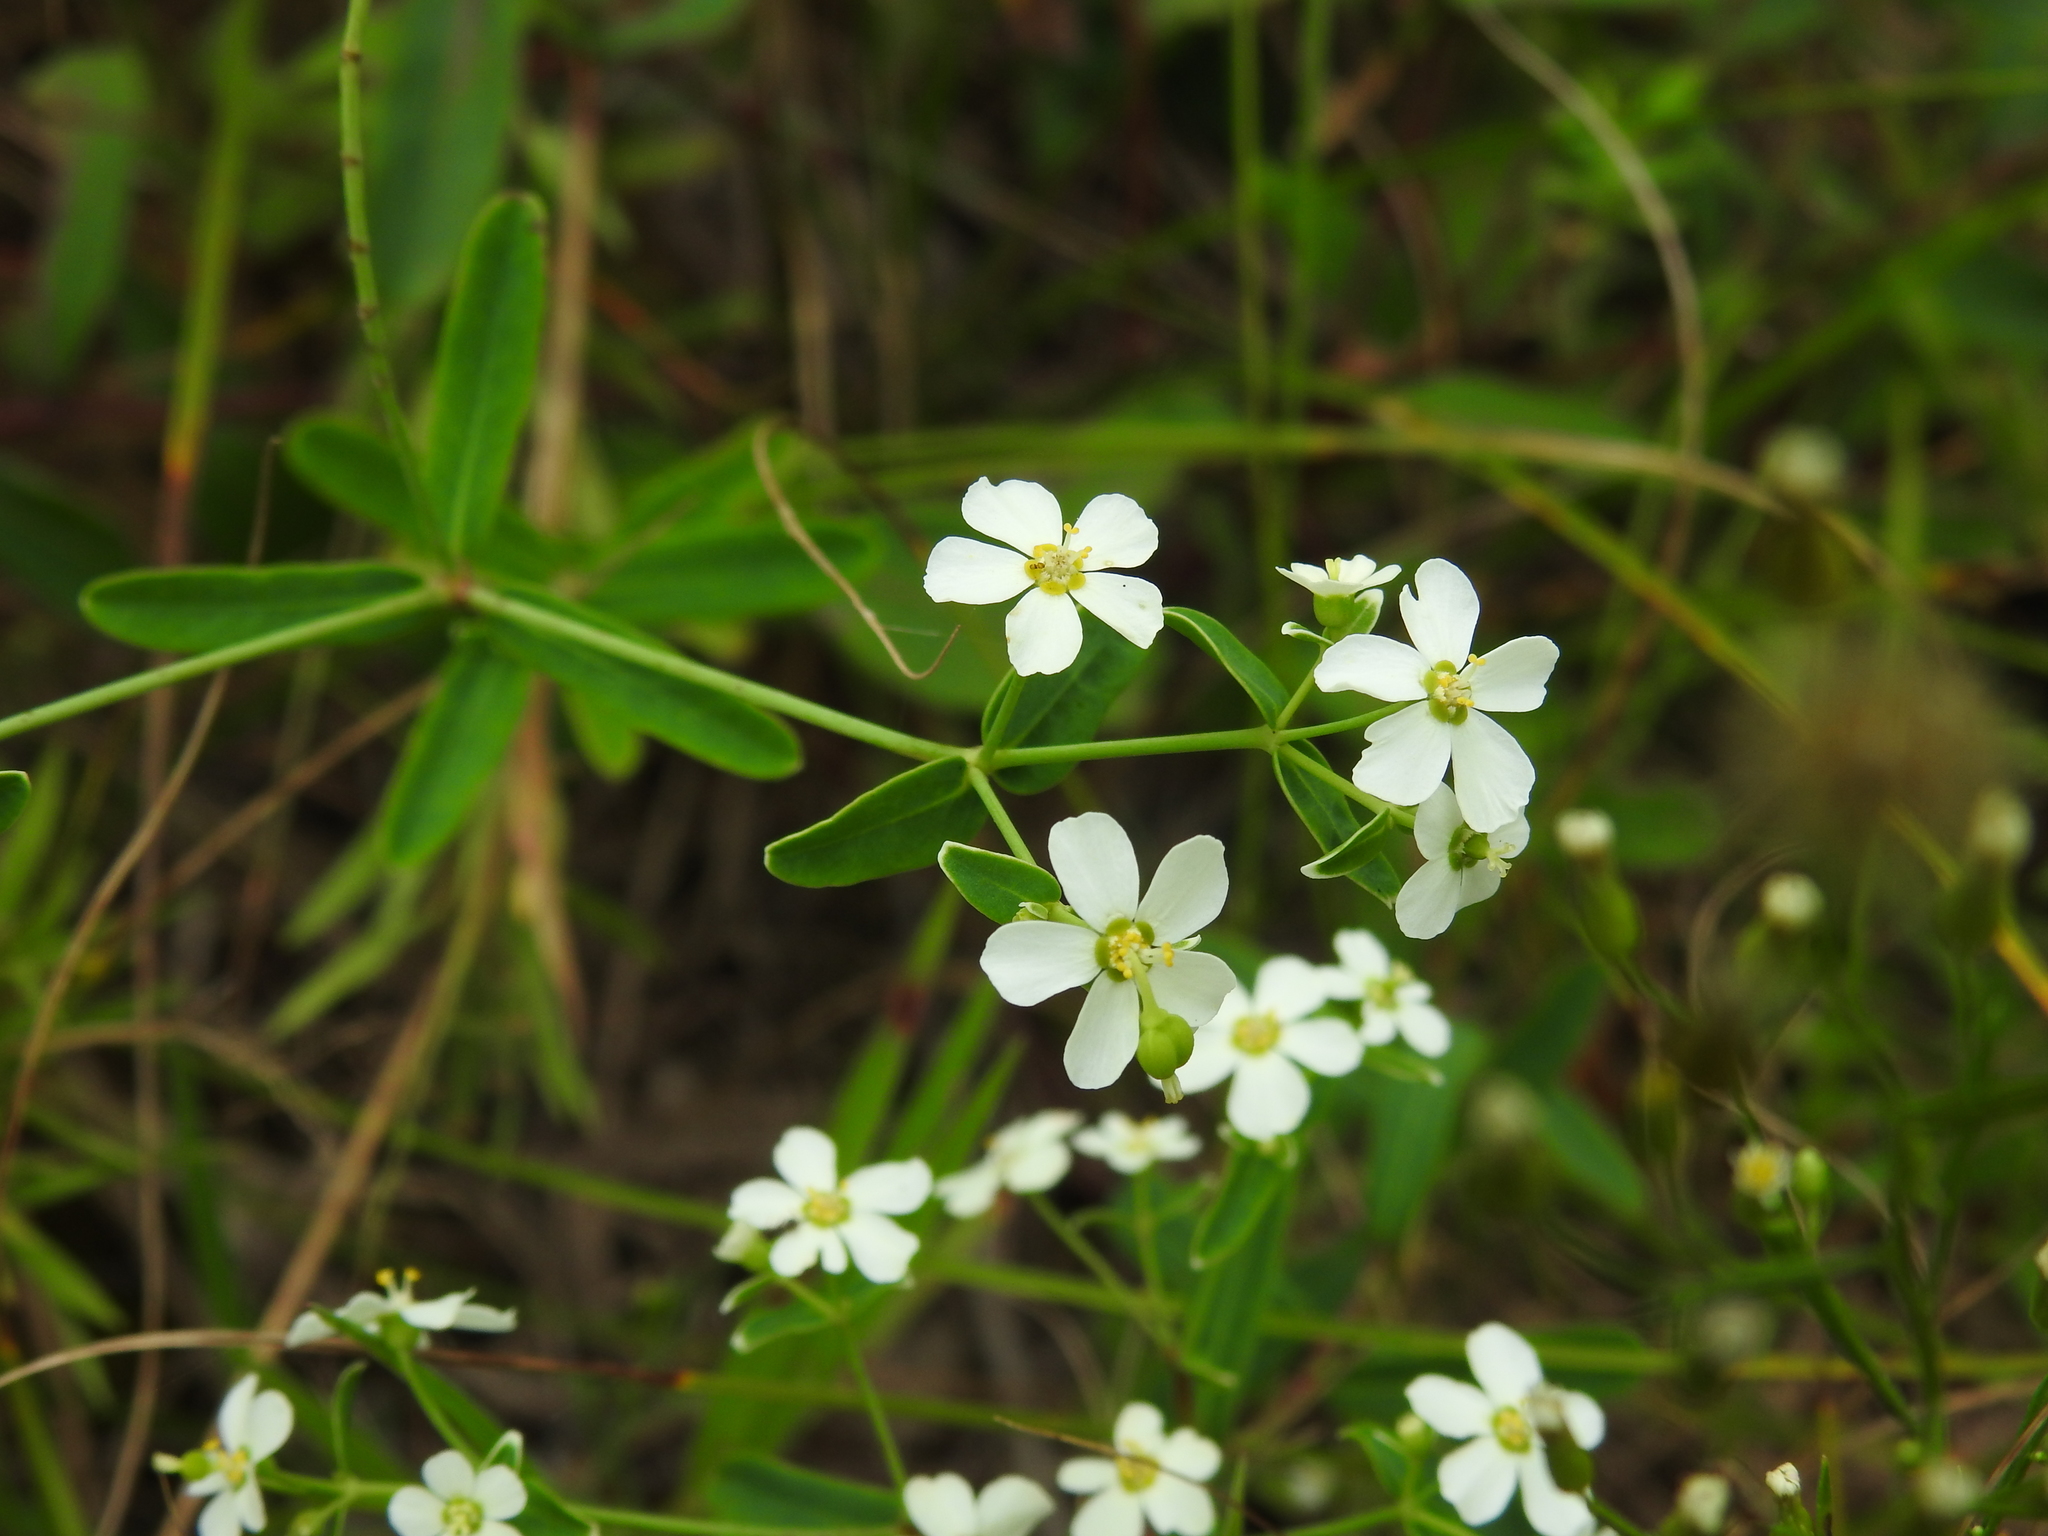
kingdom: Plantae
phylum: Tracheophyta
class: Magnoliopsida
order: Malpighiales
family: Euphorbiaceae
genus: Euphorbia
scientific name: Euphorbia corollata
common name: Flowering spurge
